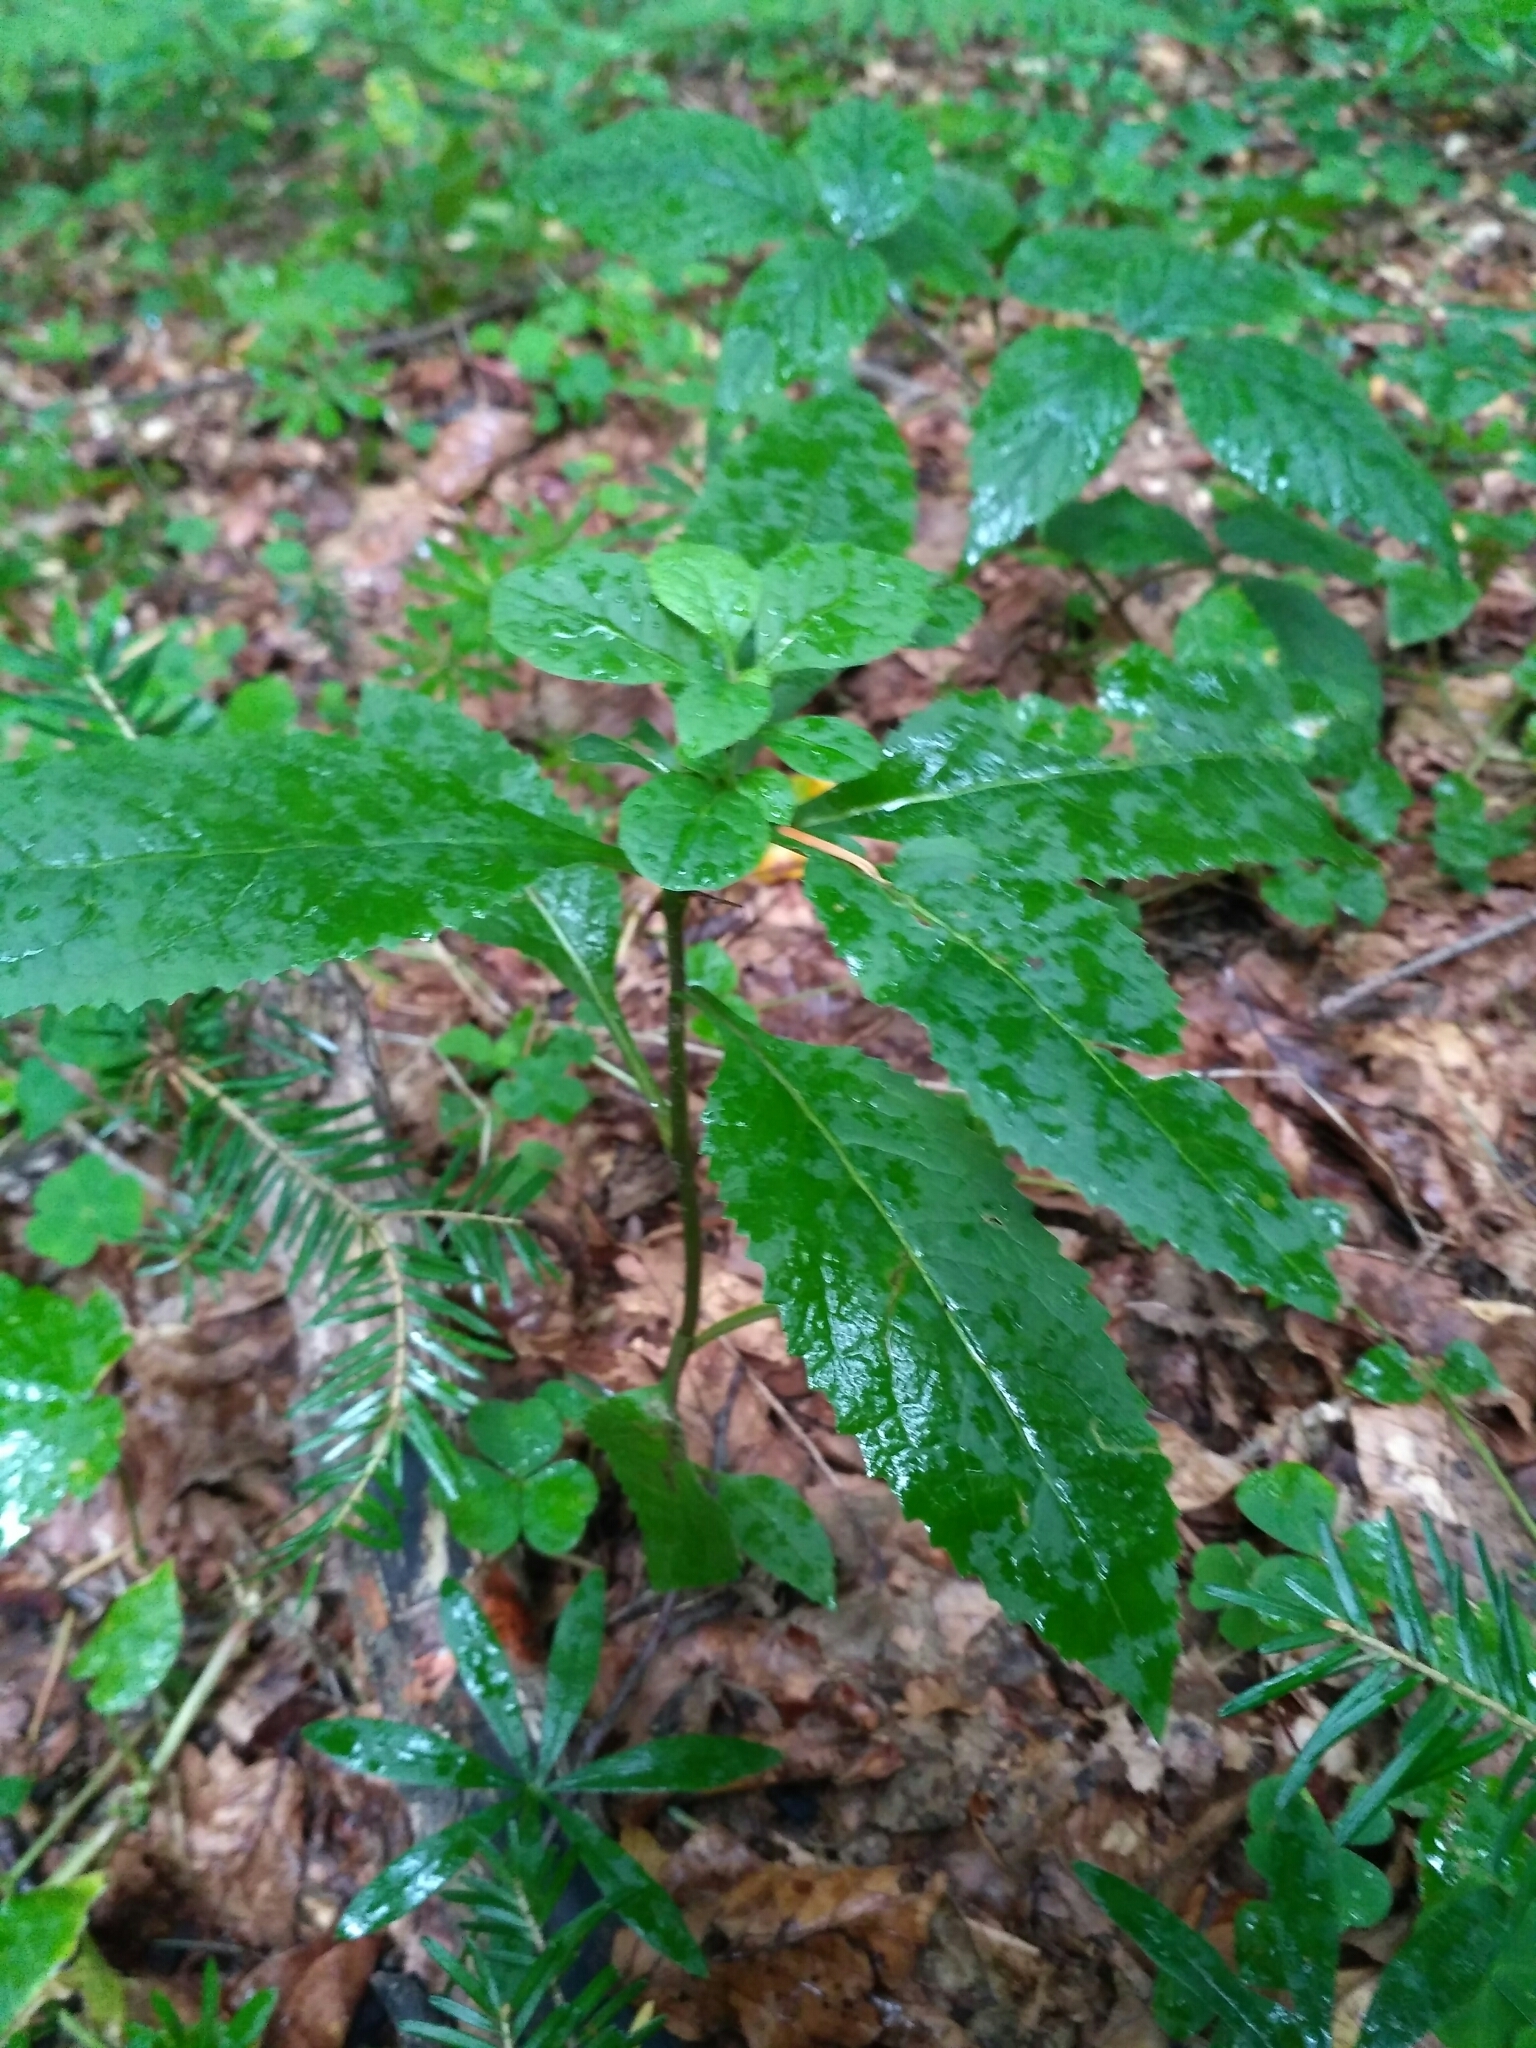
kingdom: Plantae
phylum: Tracheophyta
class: Magnoliopsida
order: Malpighiales
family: Euphorbiaceae
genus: Mercurialis
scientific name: Mercurialis perennis
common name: Dog mercury
